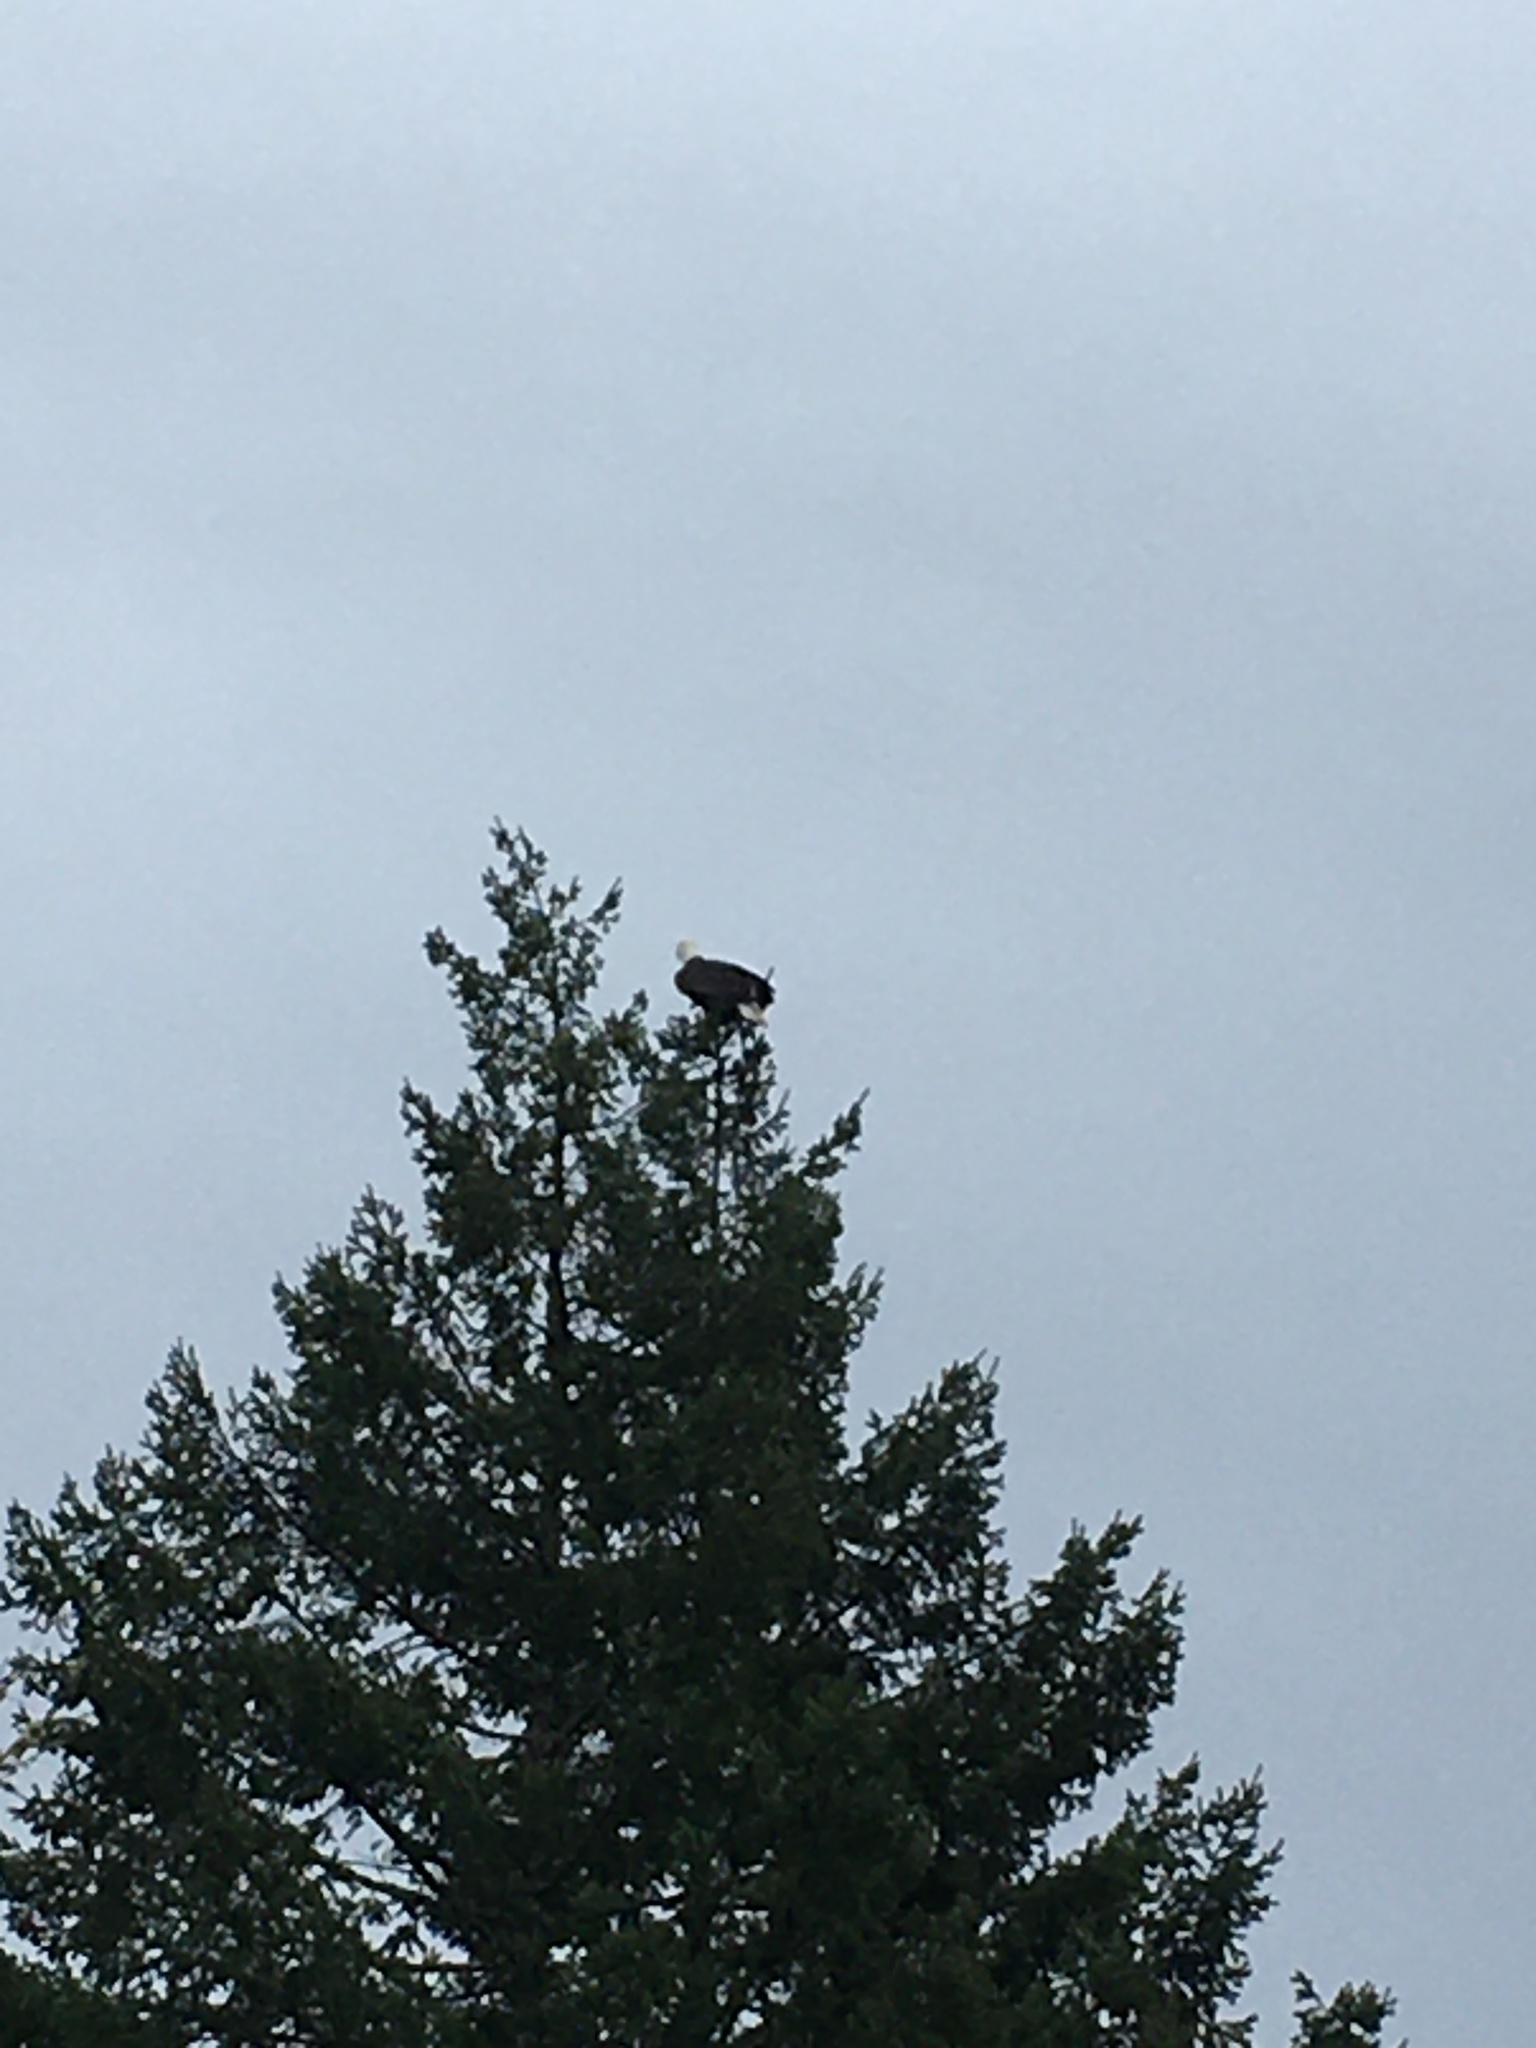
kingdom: Animalia
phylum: Chordata
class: Aves
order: Accipitriformes
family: Accipitridae
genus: Haliaeetus
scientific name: Haliaeetus leucocephalus
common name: Bald eagle
